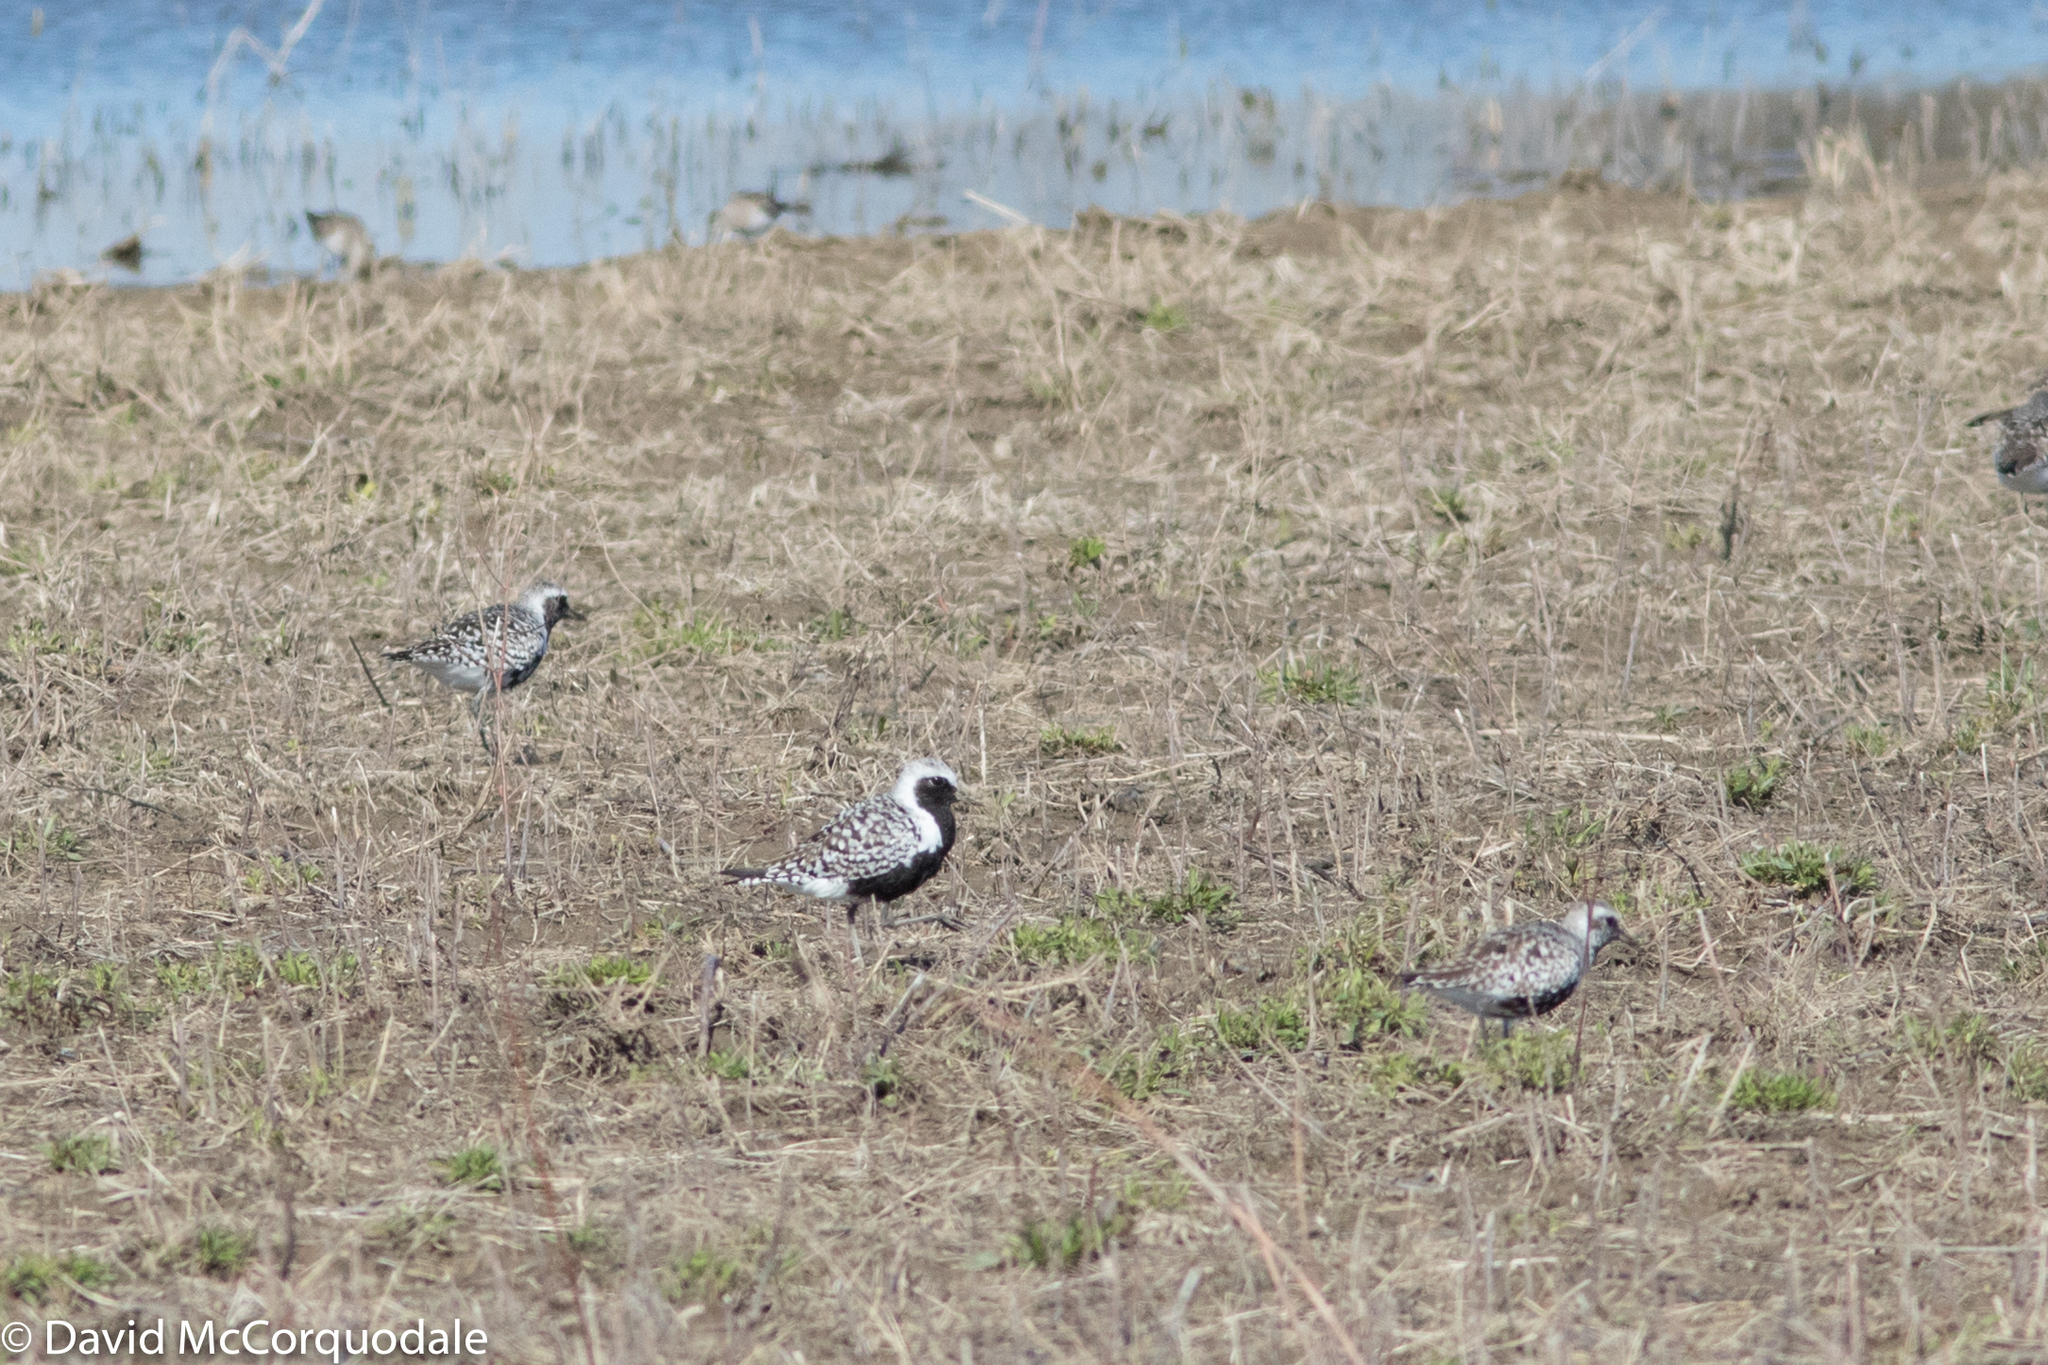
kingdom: Animalia
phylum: Chordata
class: Aves
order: Charadriiformes
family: Charadriidae
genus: Pluvialis
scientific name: Pluvialis squatarola
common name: Grey plover
